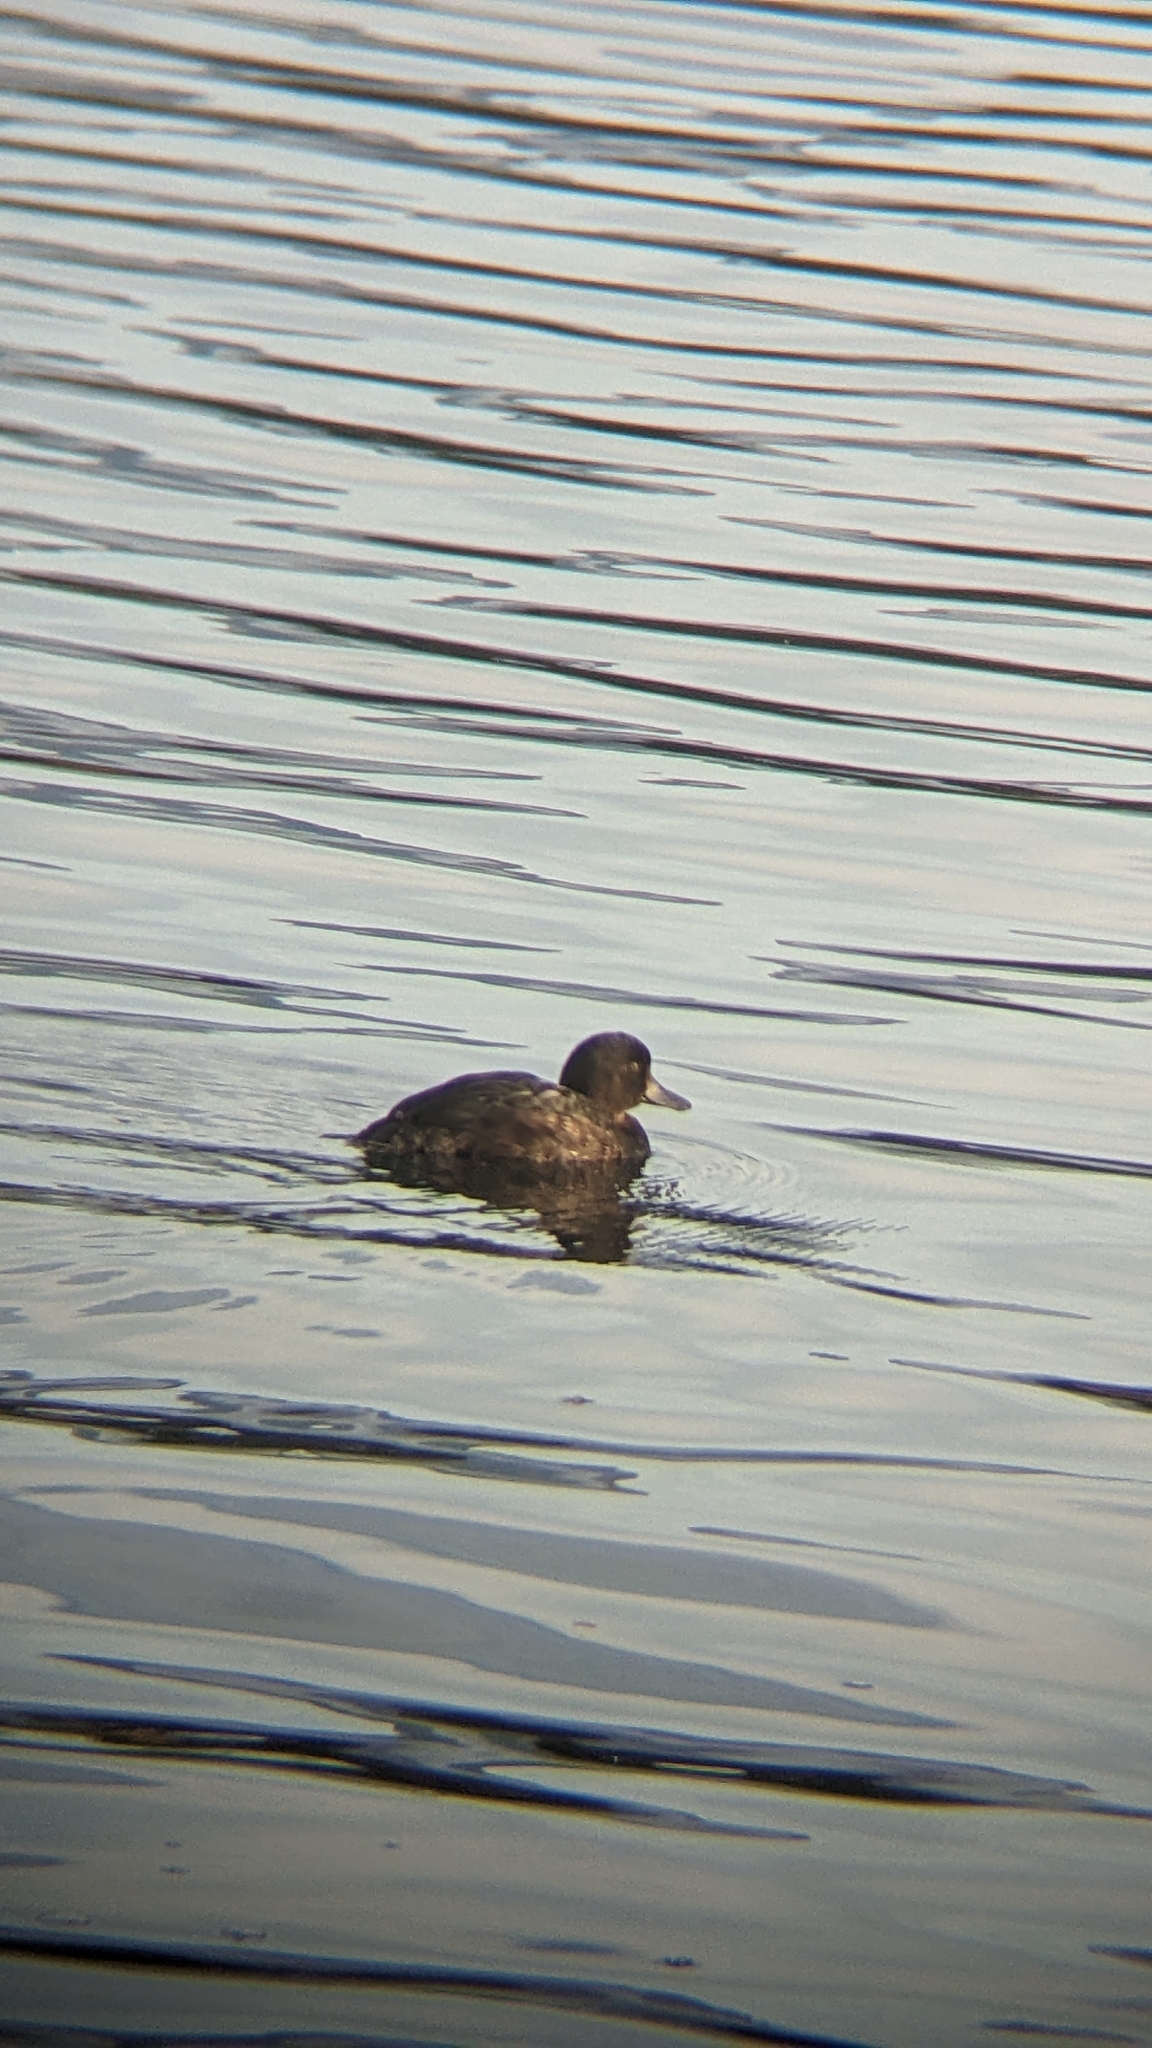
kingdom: Animalia
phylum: Chordata
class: Aves
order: Anseriformes
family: Anatidae
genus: Aythya
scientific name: Aythya novaeseelandiae
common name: New zealand scaup
